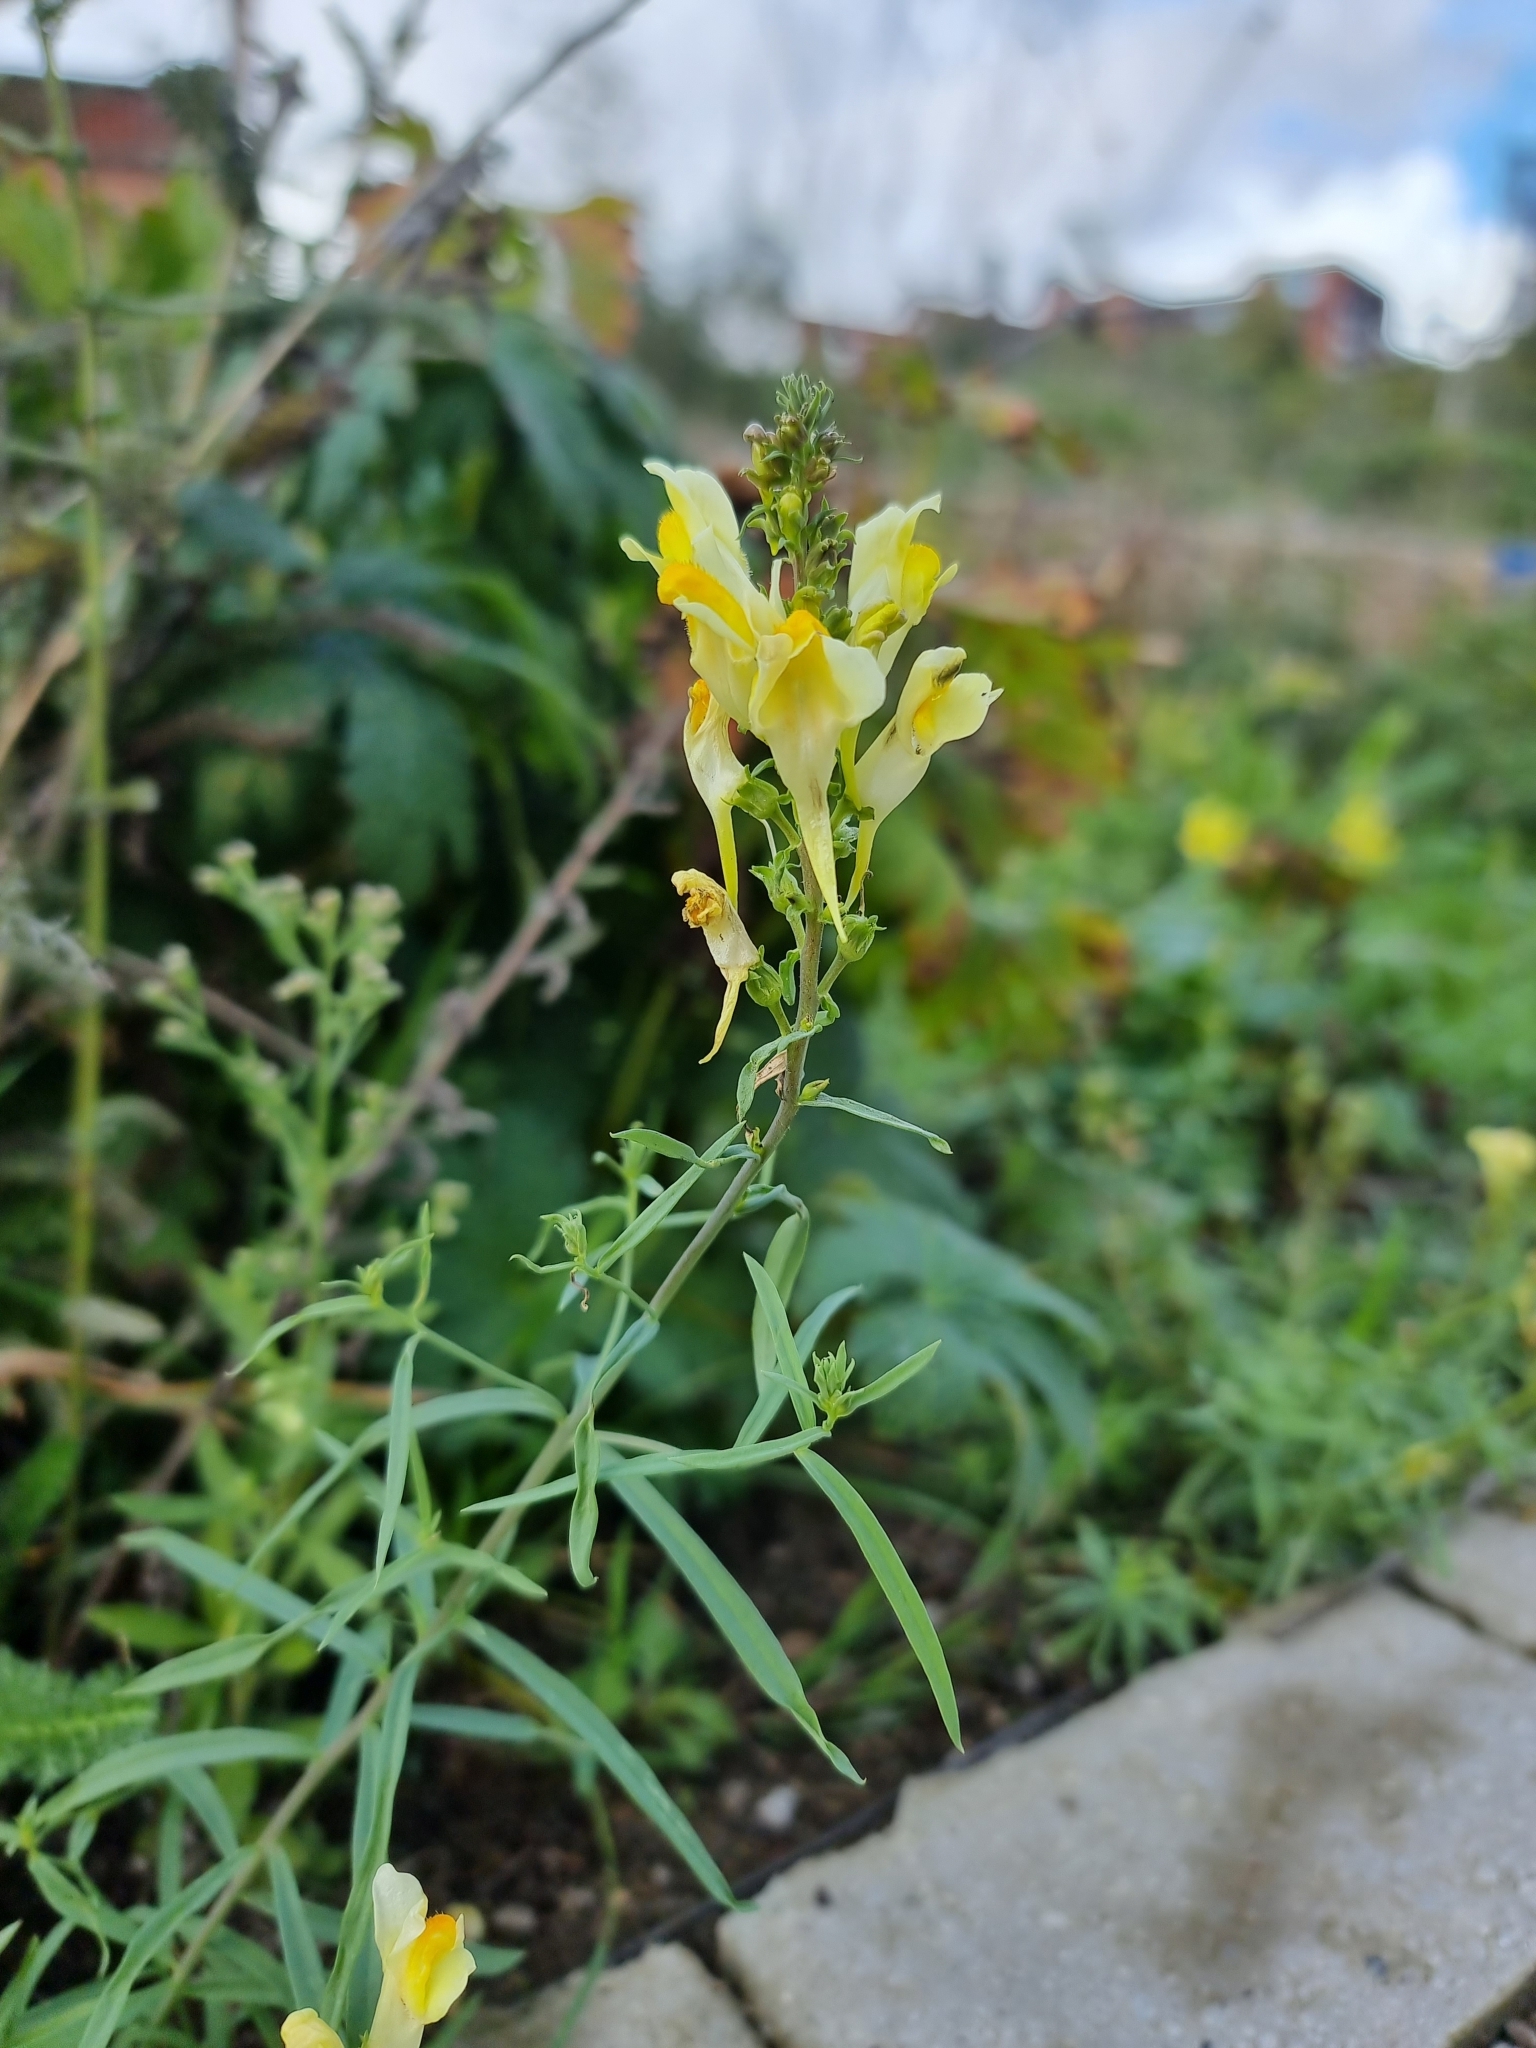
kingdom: Plantae
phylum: Tracheophyta
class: Magnoliopsida
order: Lamiales
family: Plantaginaceae
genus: Linaria
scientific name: Linaria vulgaris
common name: Butter and eggs
